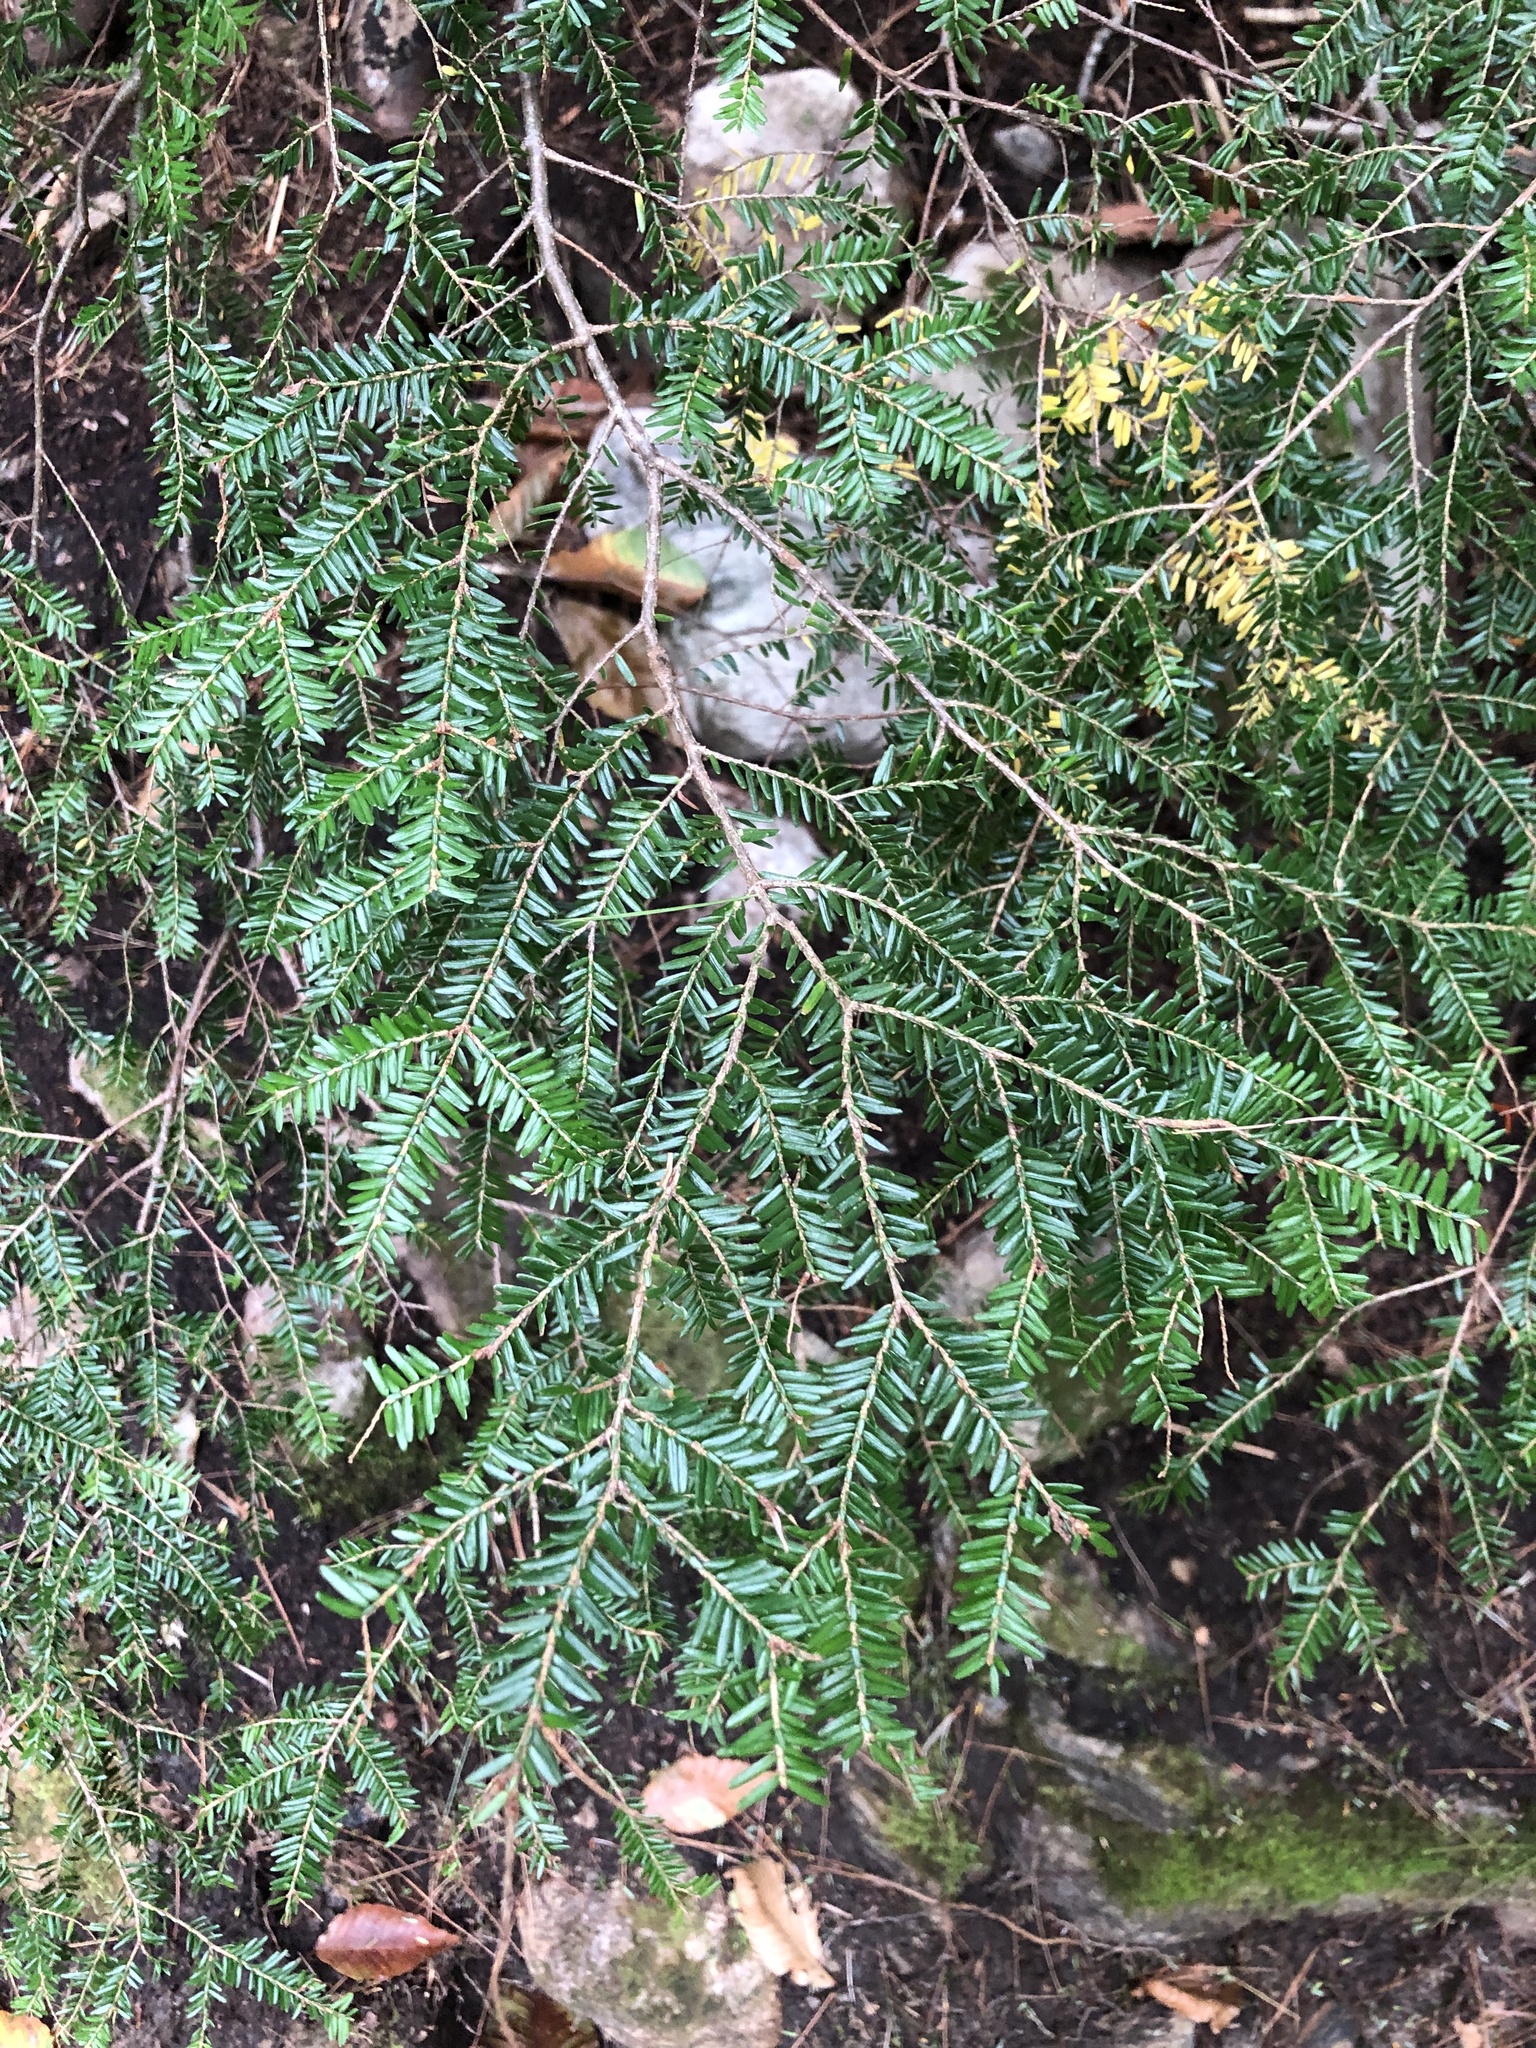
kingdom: Plantae
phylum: Tracheophyta
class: Pinopsida
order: Pinales
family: Pinaceae
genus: Tsuga
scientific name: Tsuga canadensis
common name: Eastern hemlock
